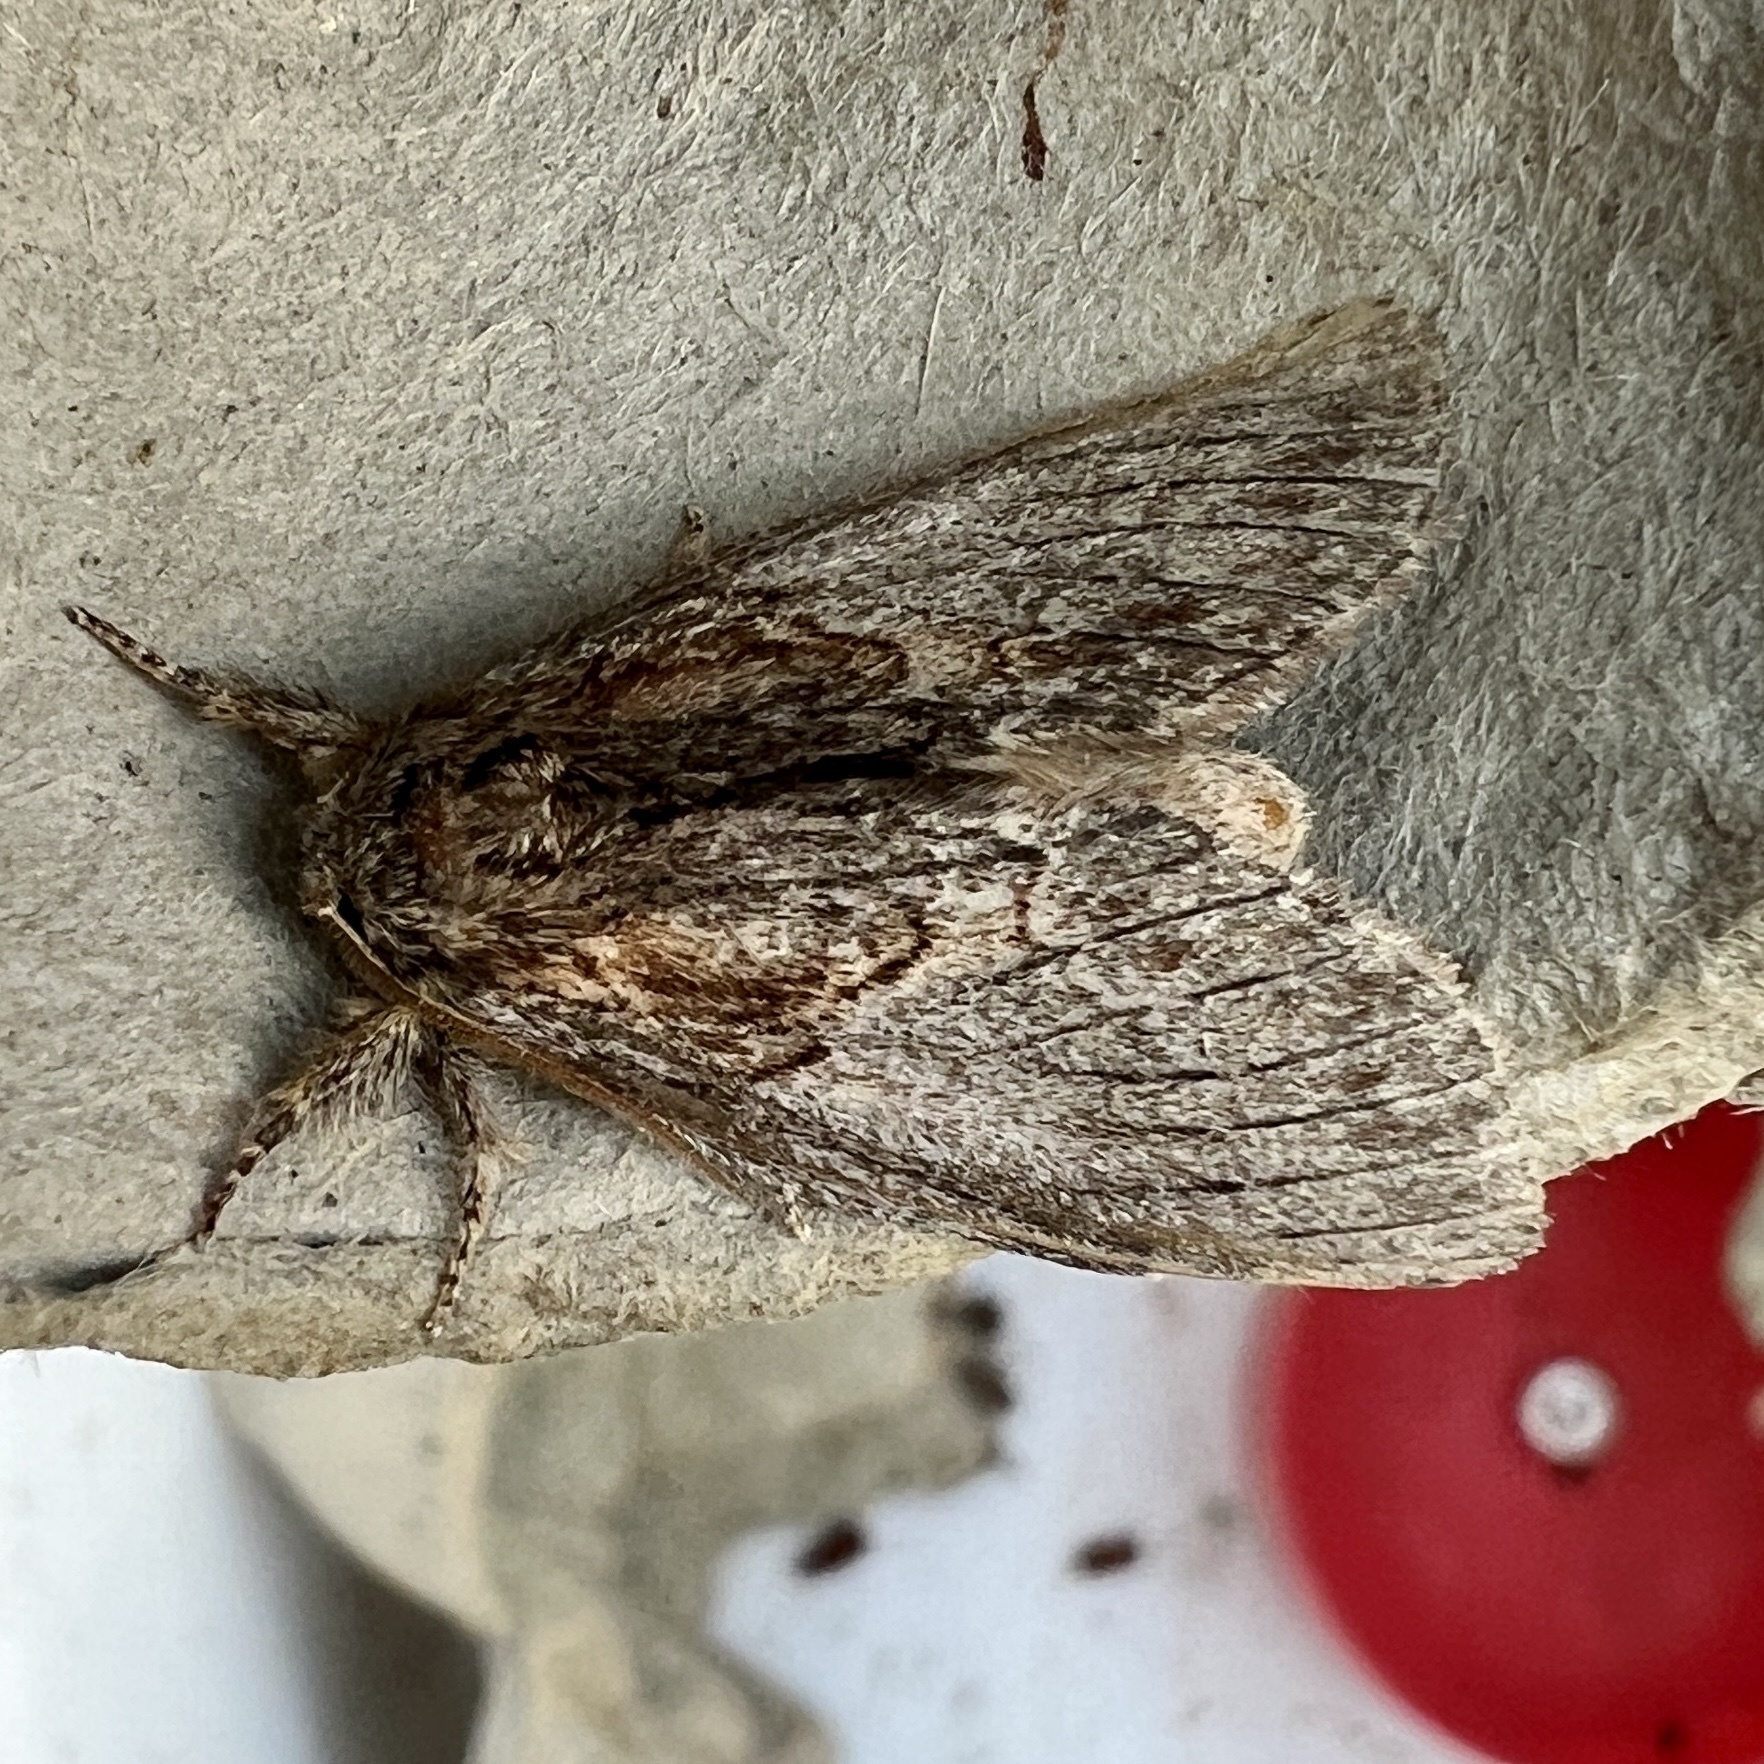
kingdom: Animalia
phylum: Arthropoda
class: Insecta
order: Lepidoptera
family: Notodontidae
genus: Peridea
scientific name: Peridea basitriens
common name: Oval-based prominent
